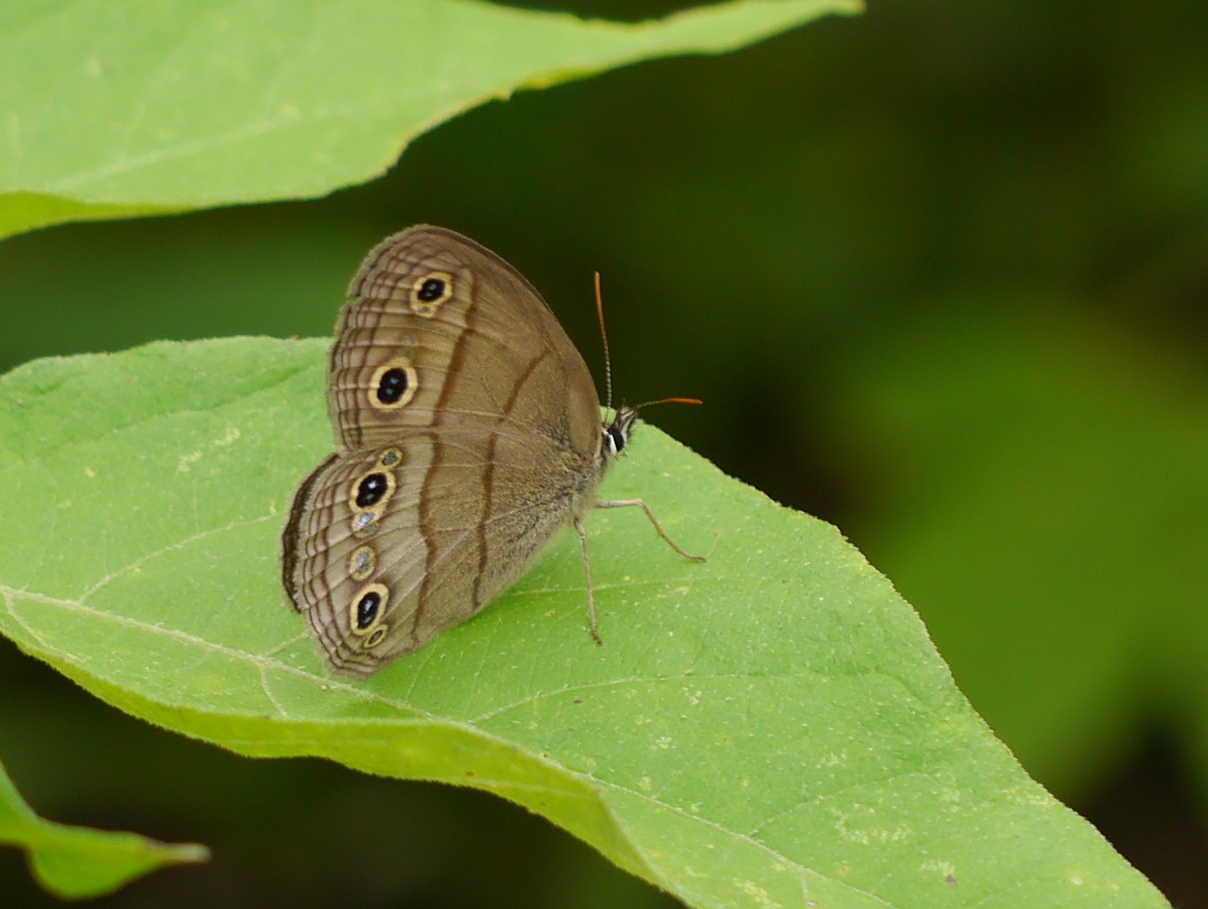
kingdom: Animalia
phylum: Arthropoda
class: Insecta
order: Lepidoptera
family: Nymphalidae
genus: Euptychia
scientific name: Euptychia cymela
